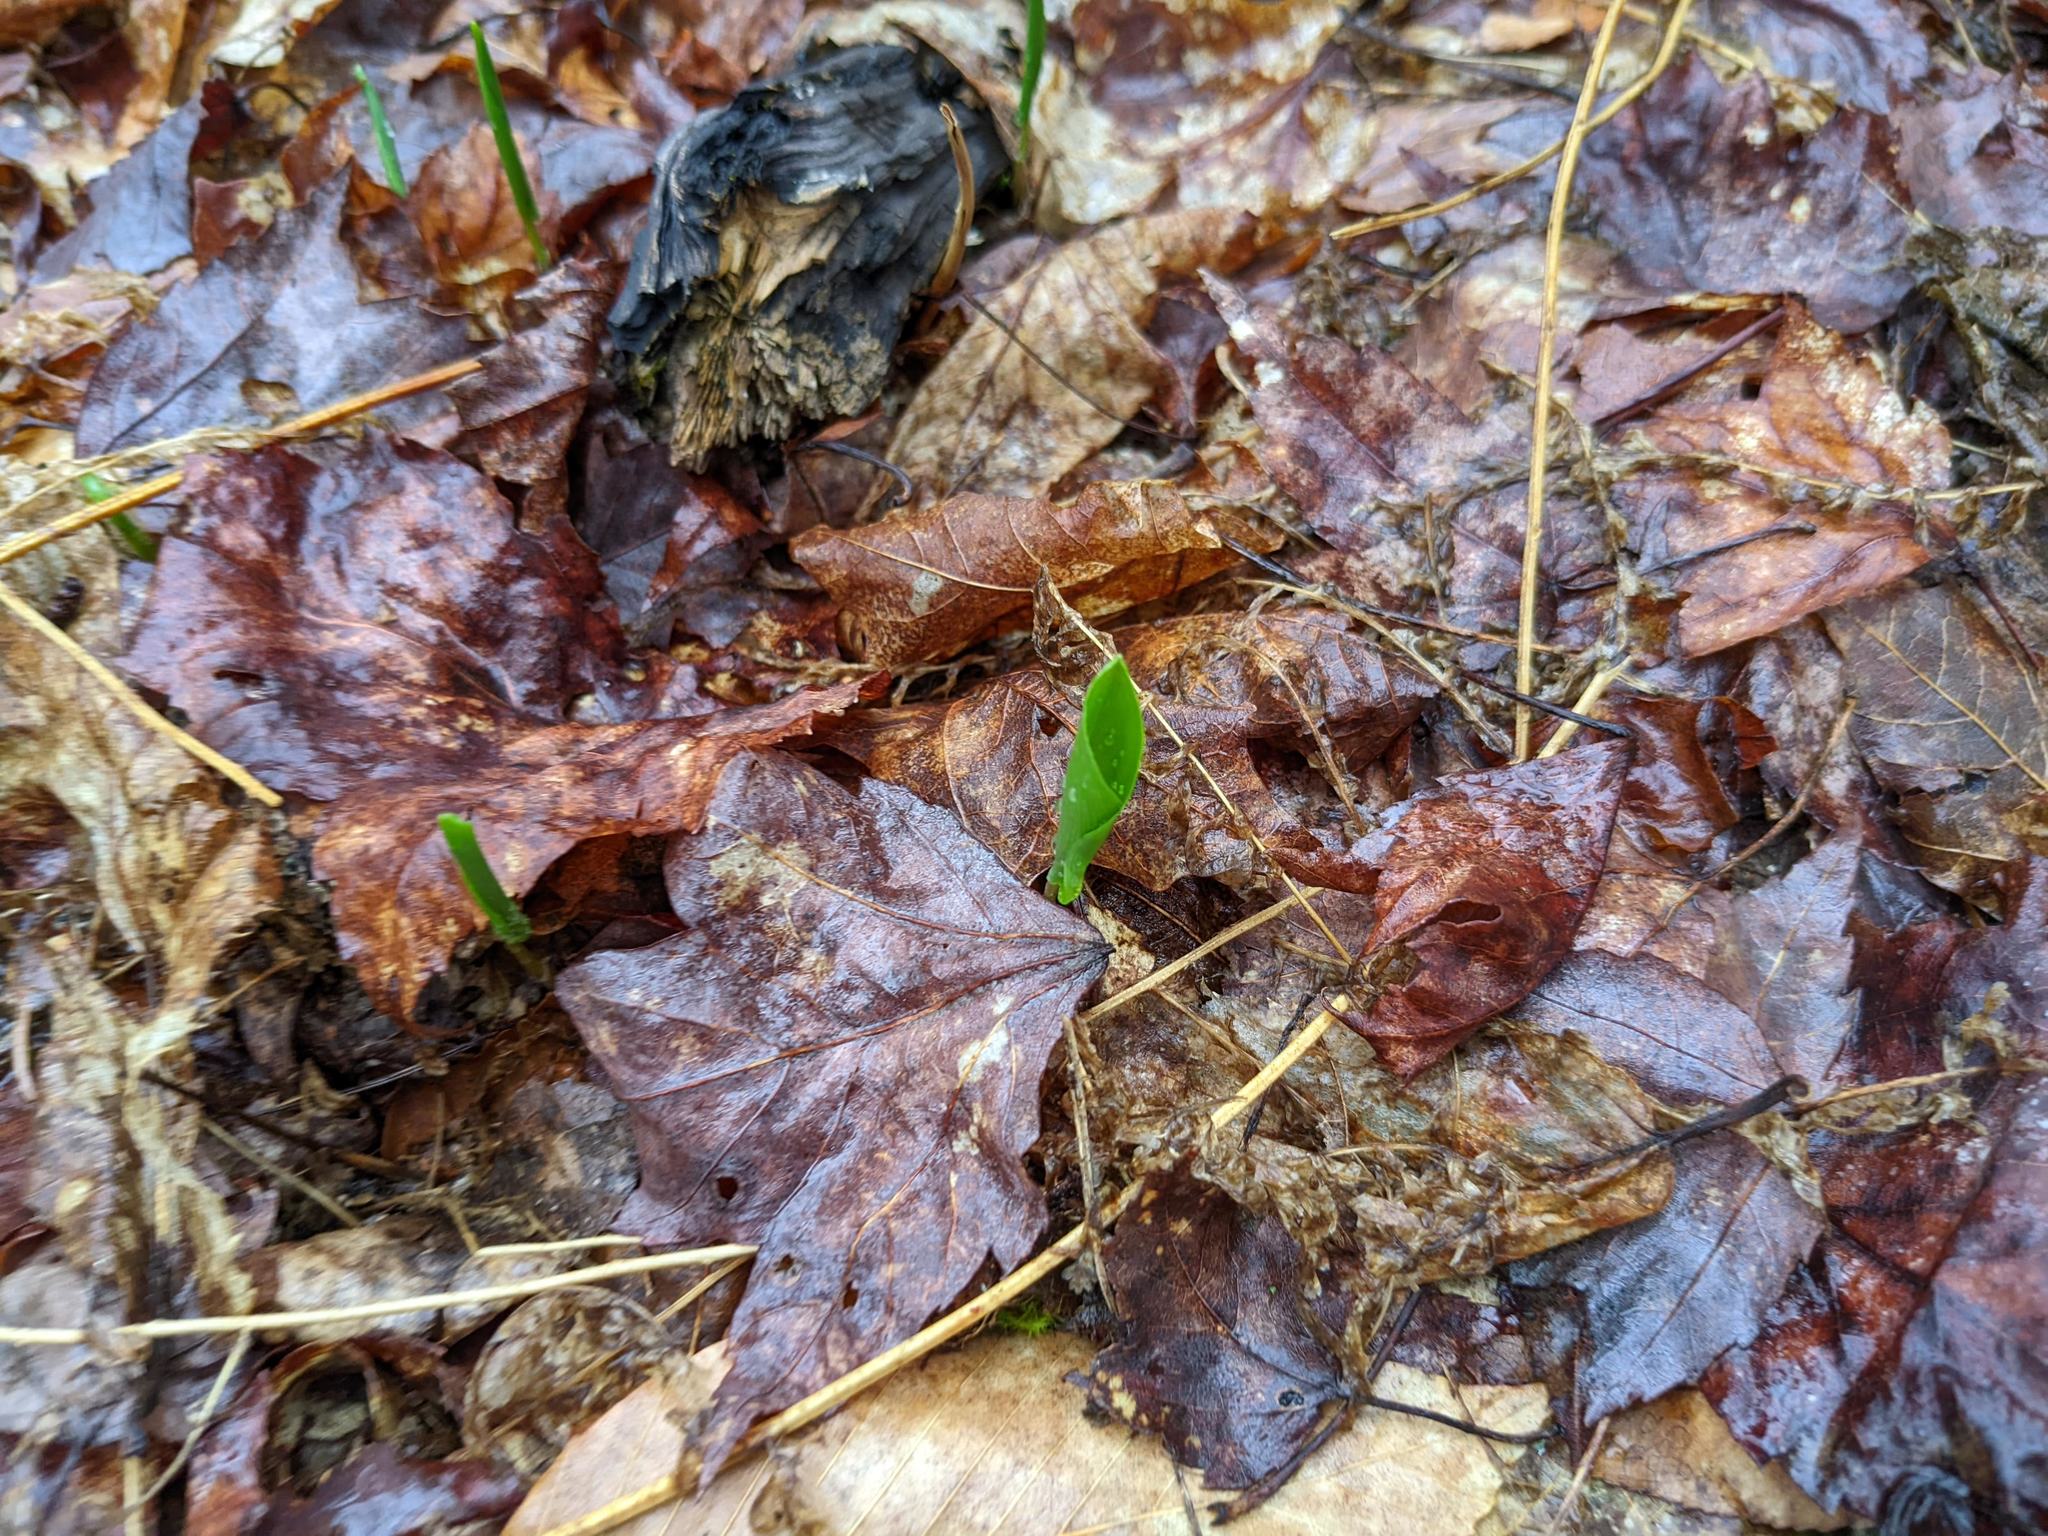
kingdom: Plantae
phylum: Tracheophyta
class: Liliopsida
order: Asparagales
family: Asparagaceae
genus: Maianthemum
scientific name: Maianthemum canadense
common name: False lily-of-the-valley
